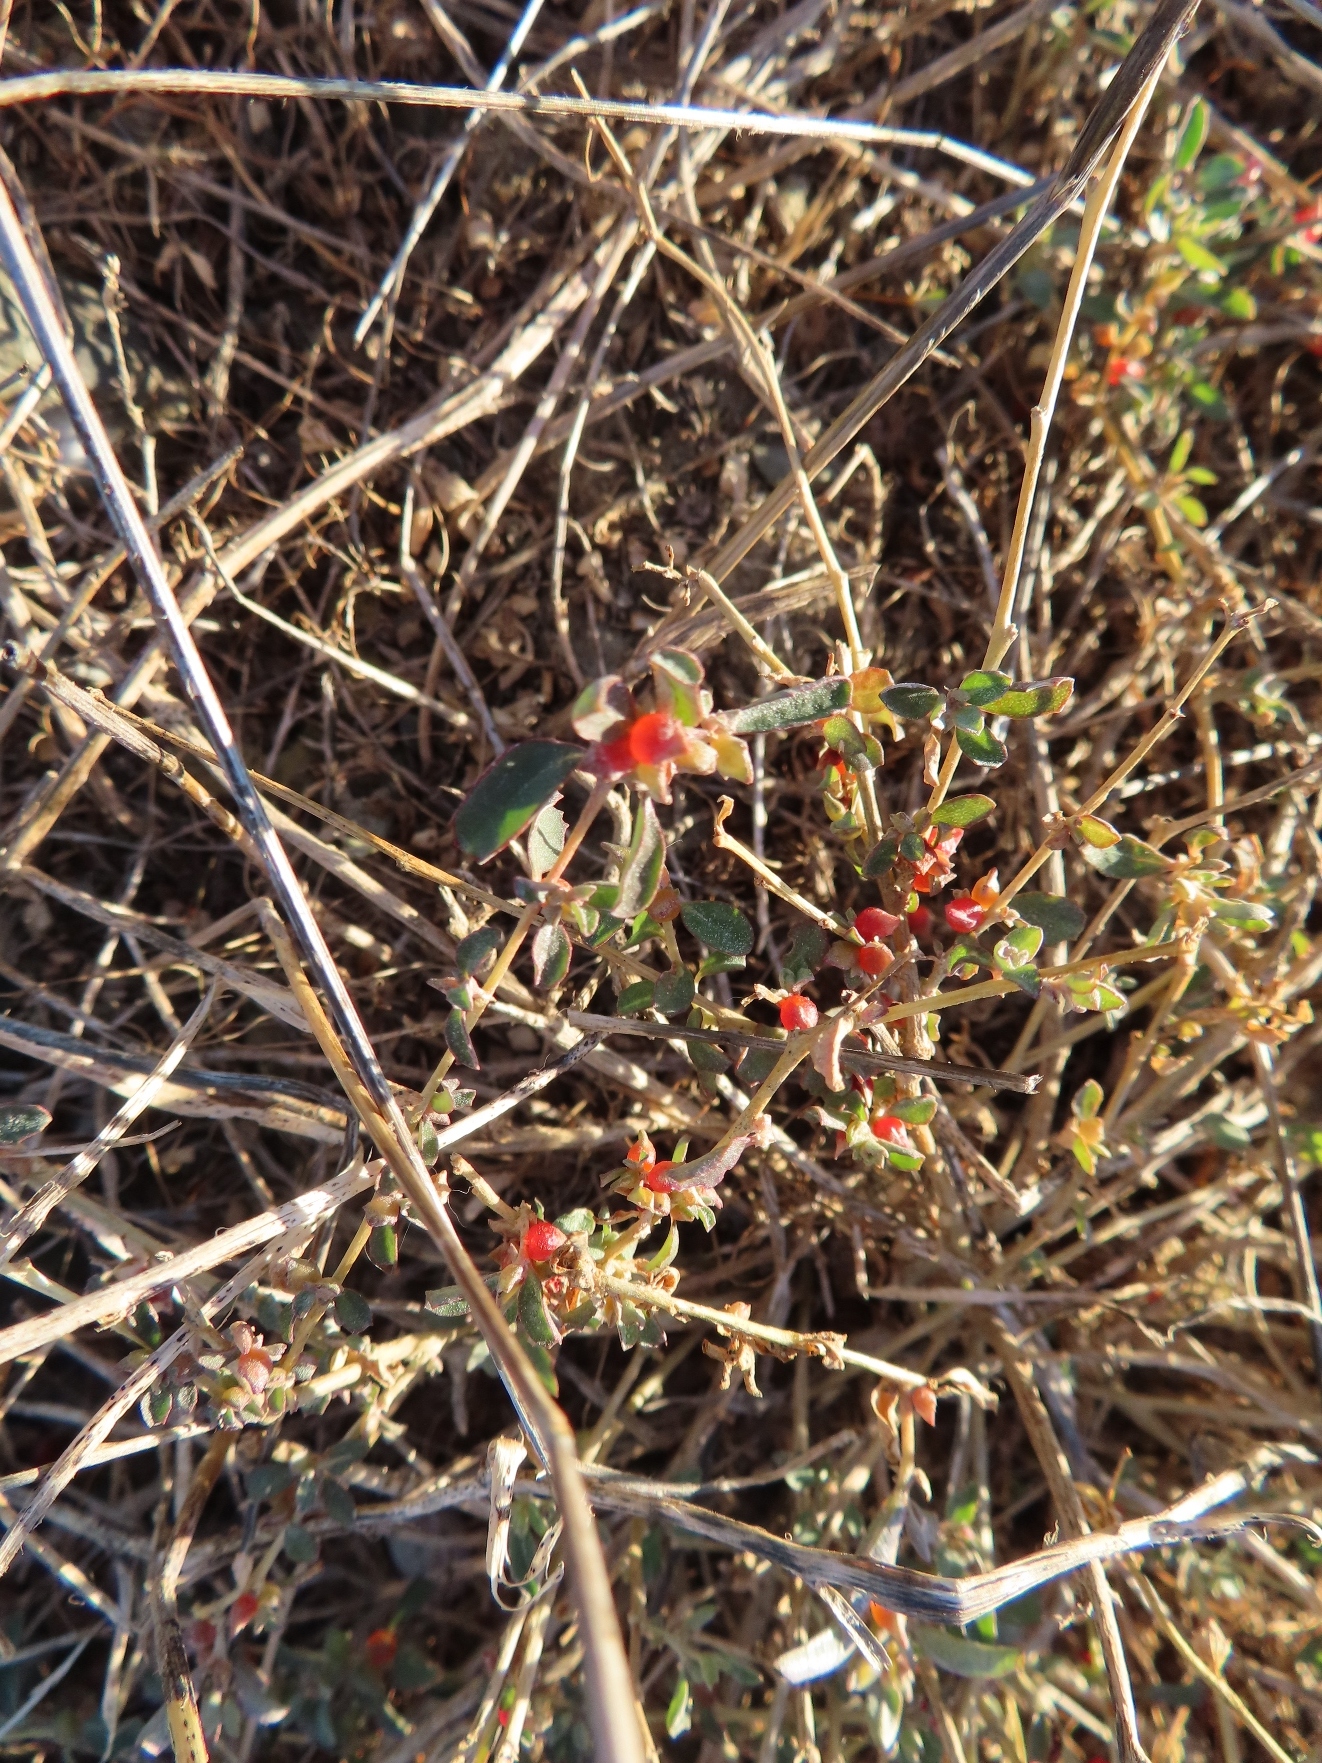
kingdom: Plantae
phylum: Tracheophyta
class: Magnoliopsida
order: Caryophyllales
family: Amaranthaceae
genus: Atriplex
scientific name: Atriplex semibaccata
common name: Australian saltbush
